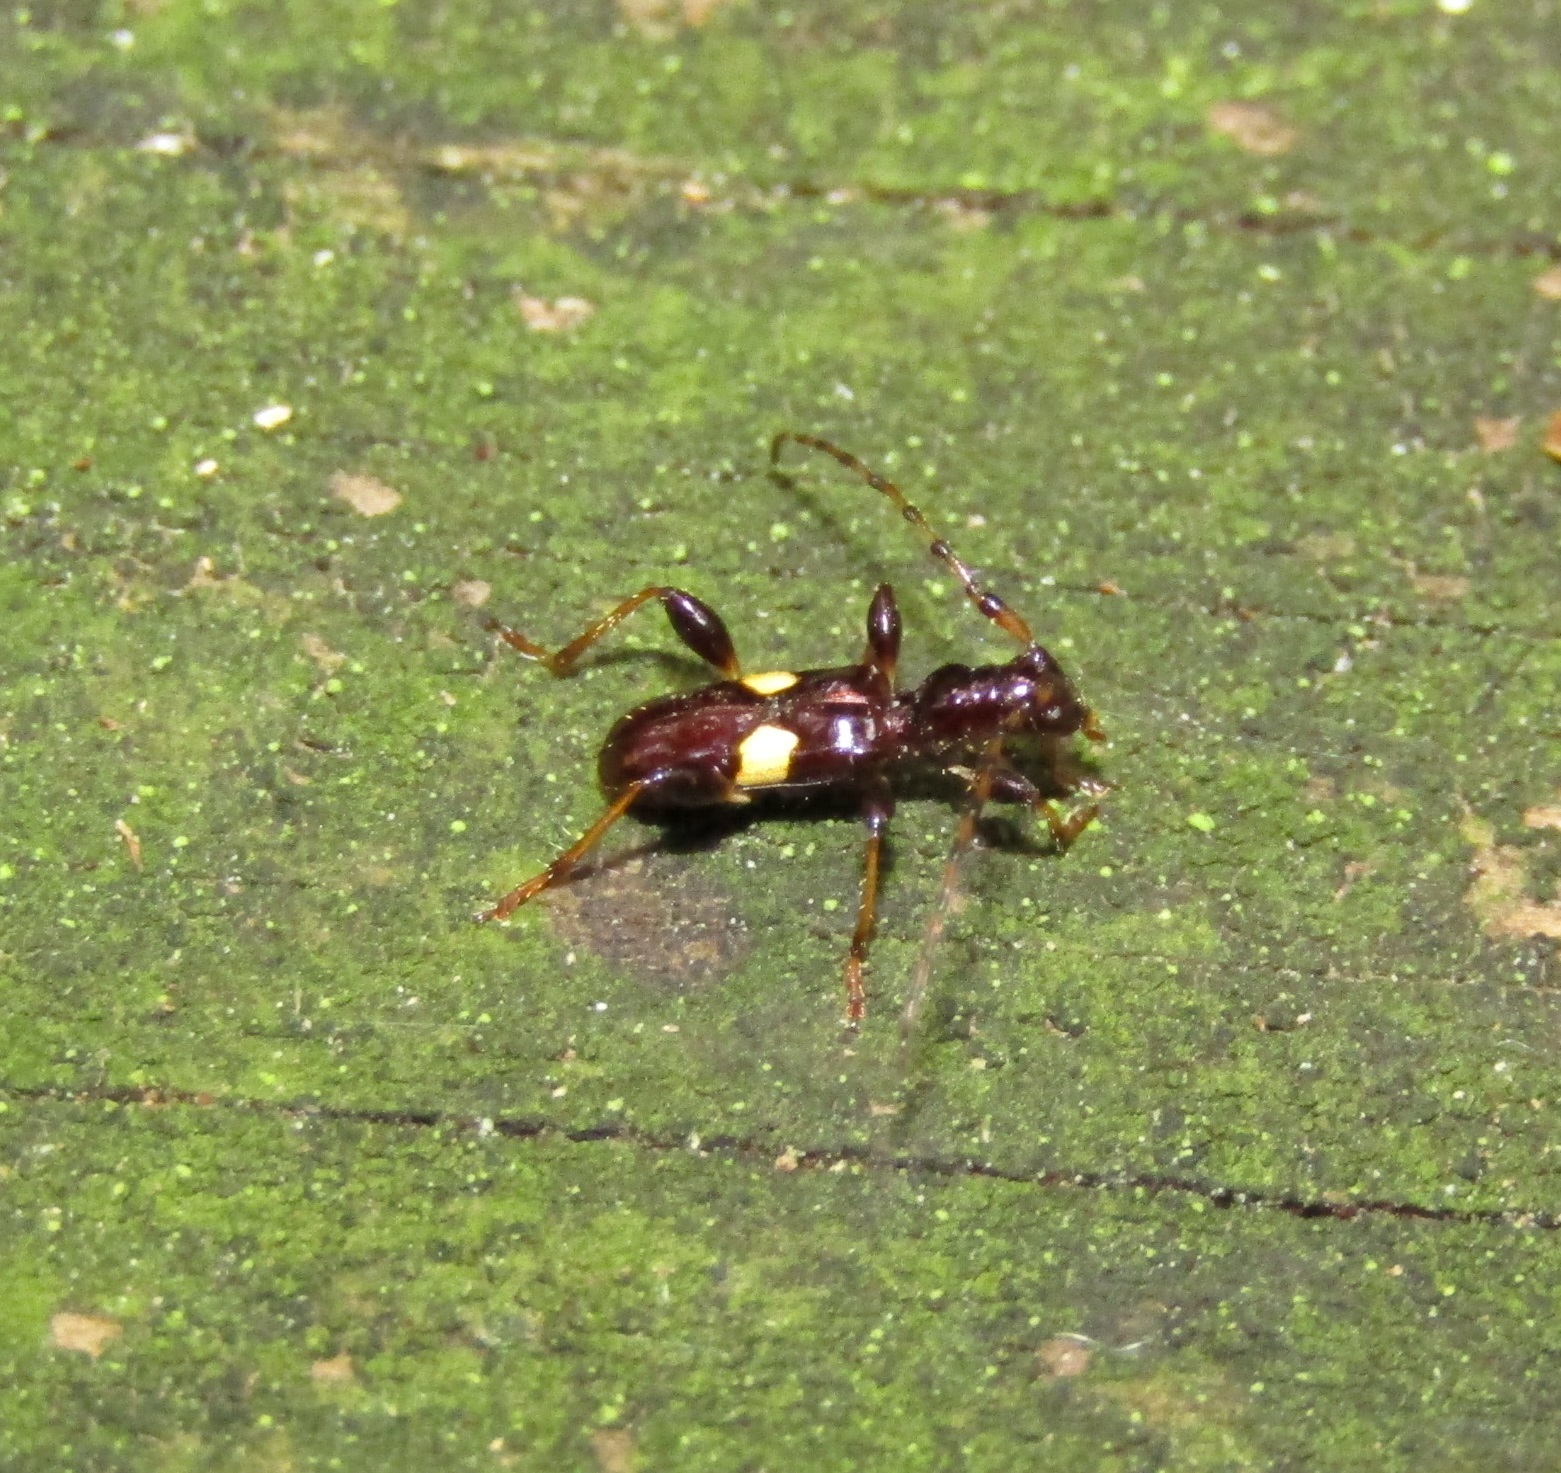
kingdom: Animalia
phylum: Arthropoda
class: Insecta
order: Coleoptera
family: Cerambycidae
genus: Zorion
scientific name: Zorion guttigerum
